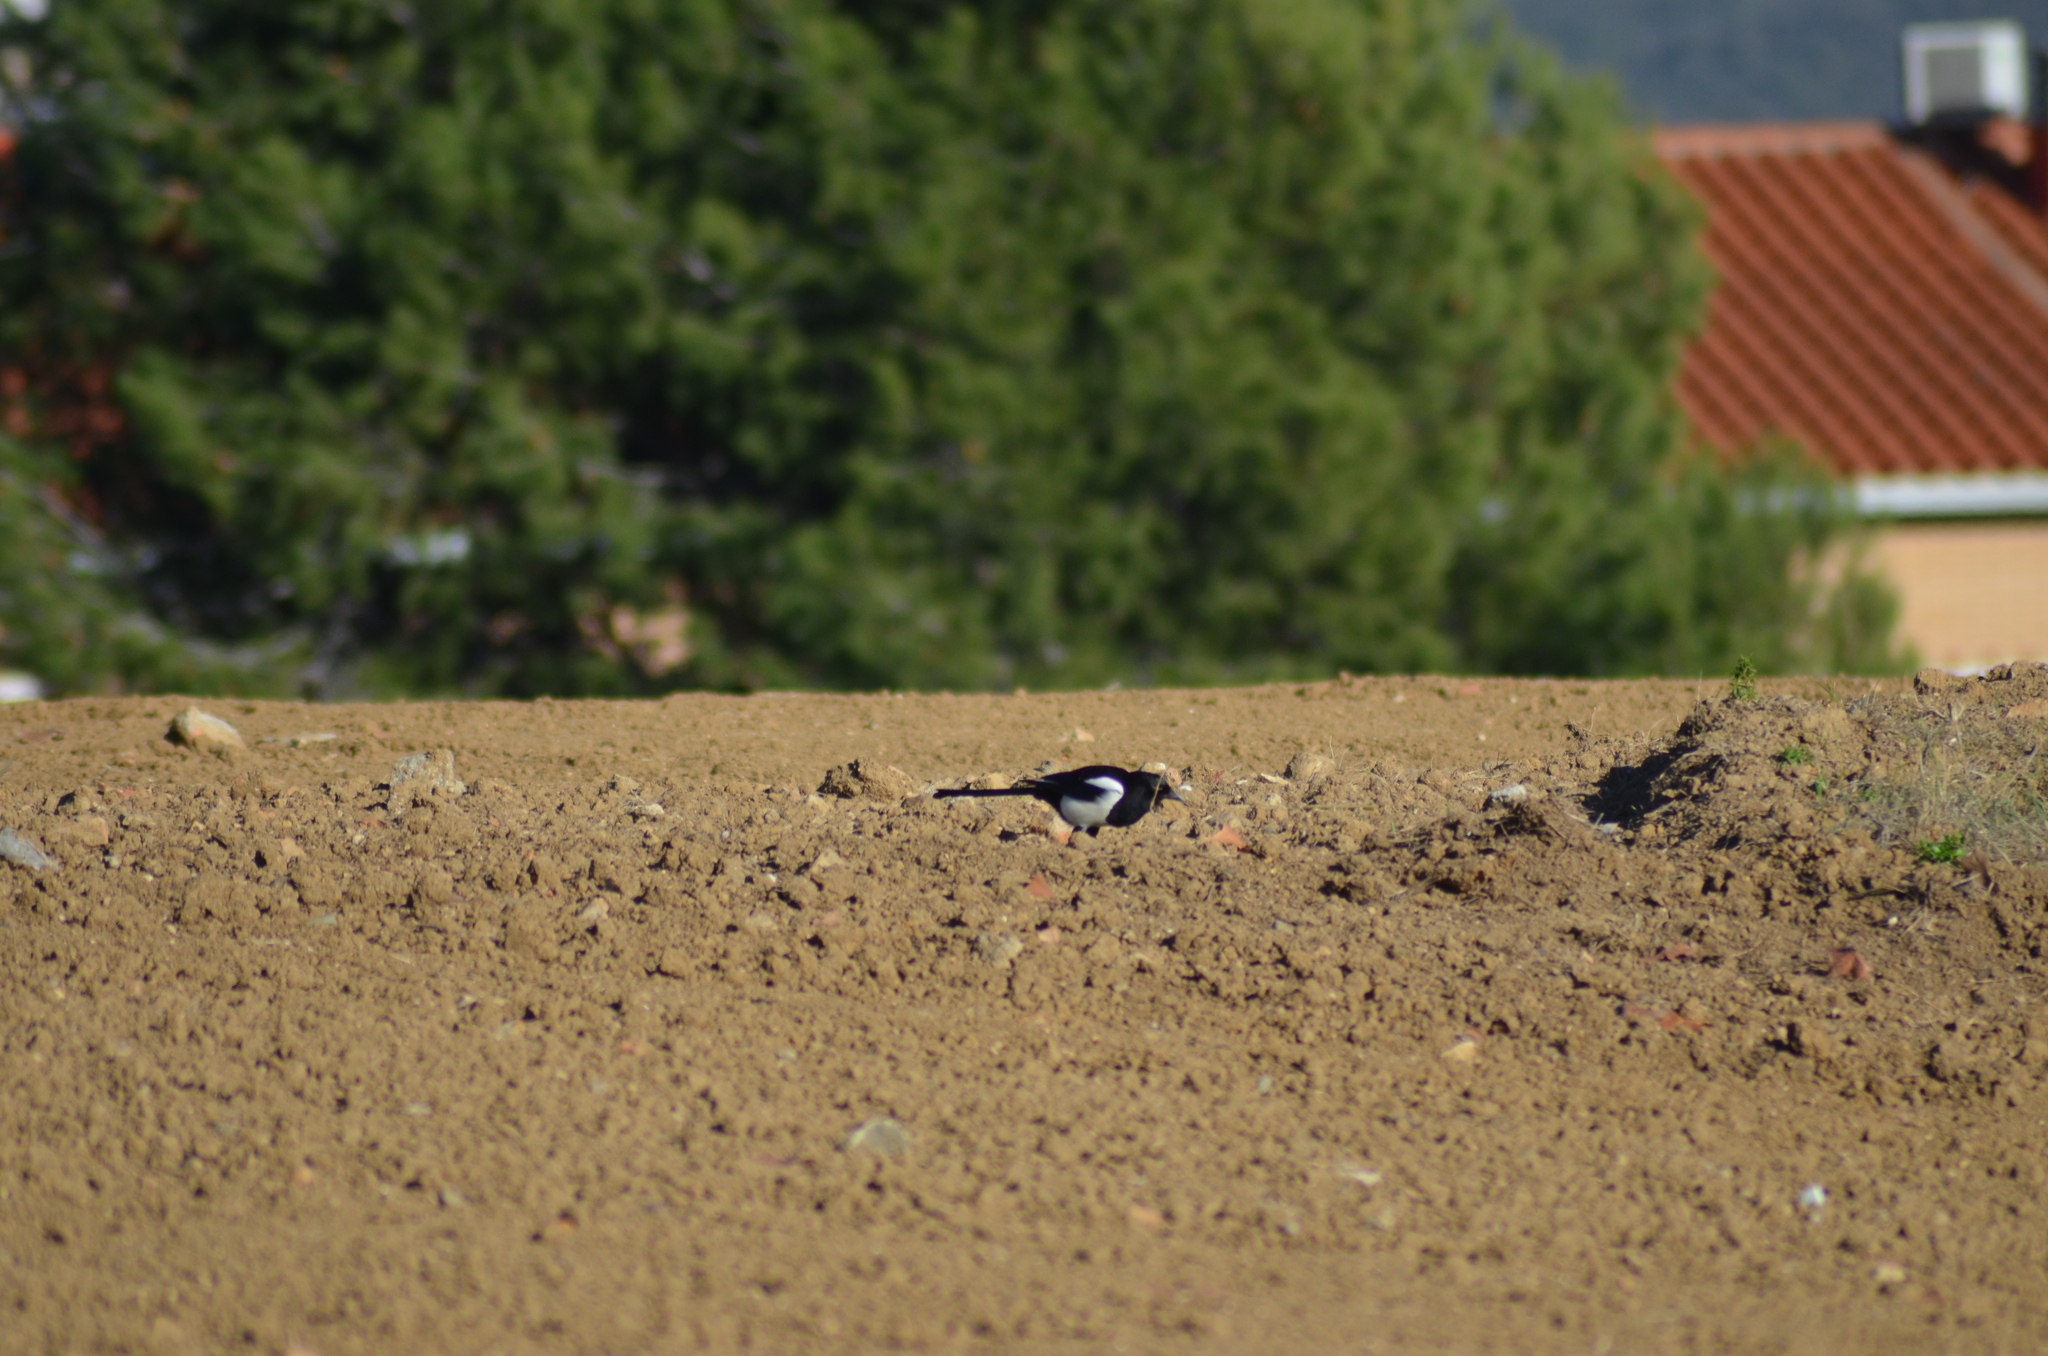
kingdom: Animalia
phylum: Chordata
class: Aves
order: Passeriformes
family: Corvidae
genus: Pica
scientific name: Pica pica
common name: Eurasian magpie
